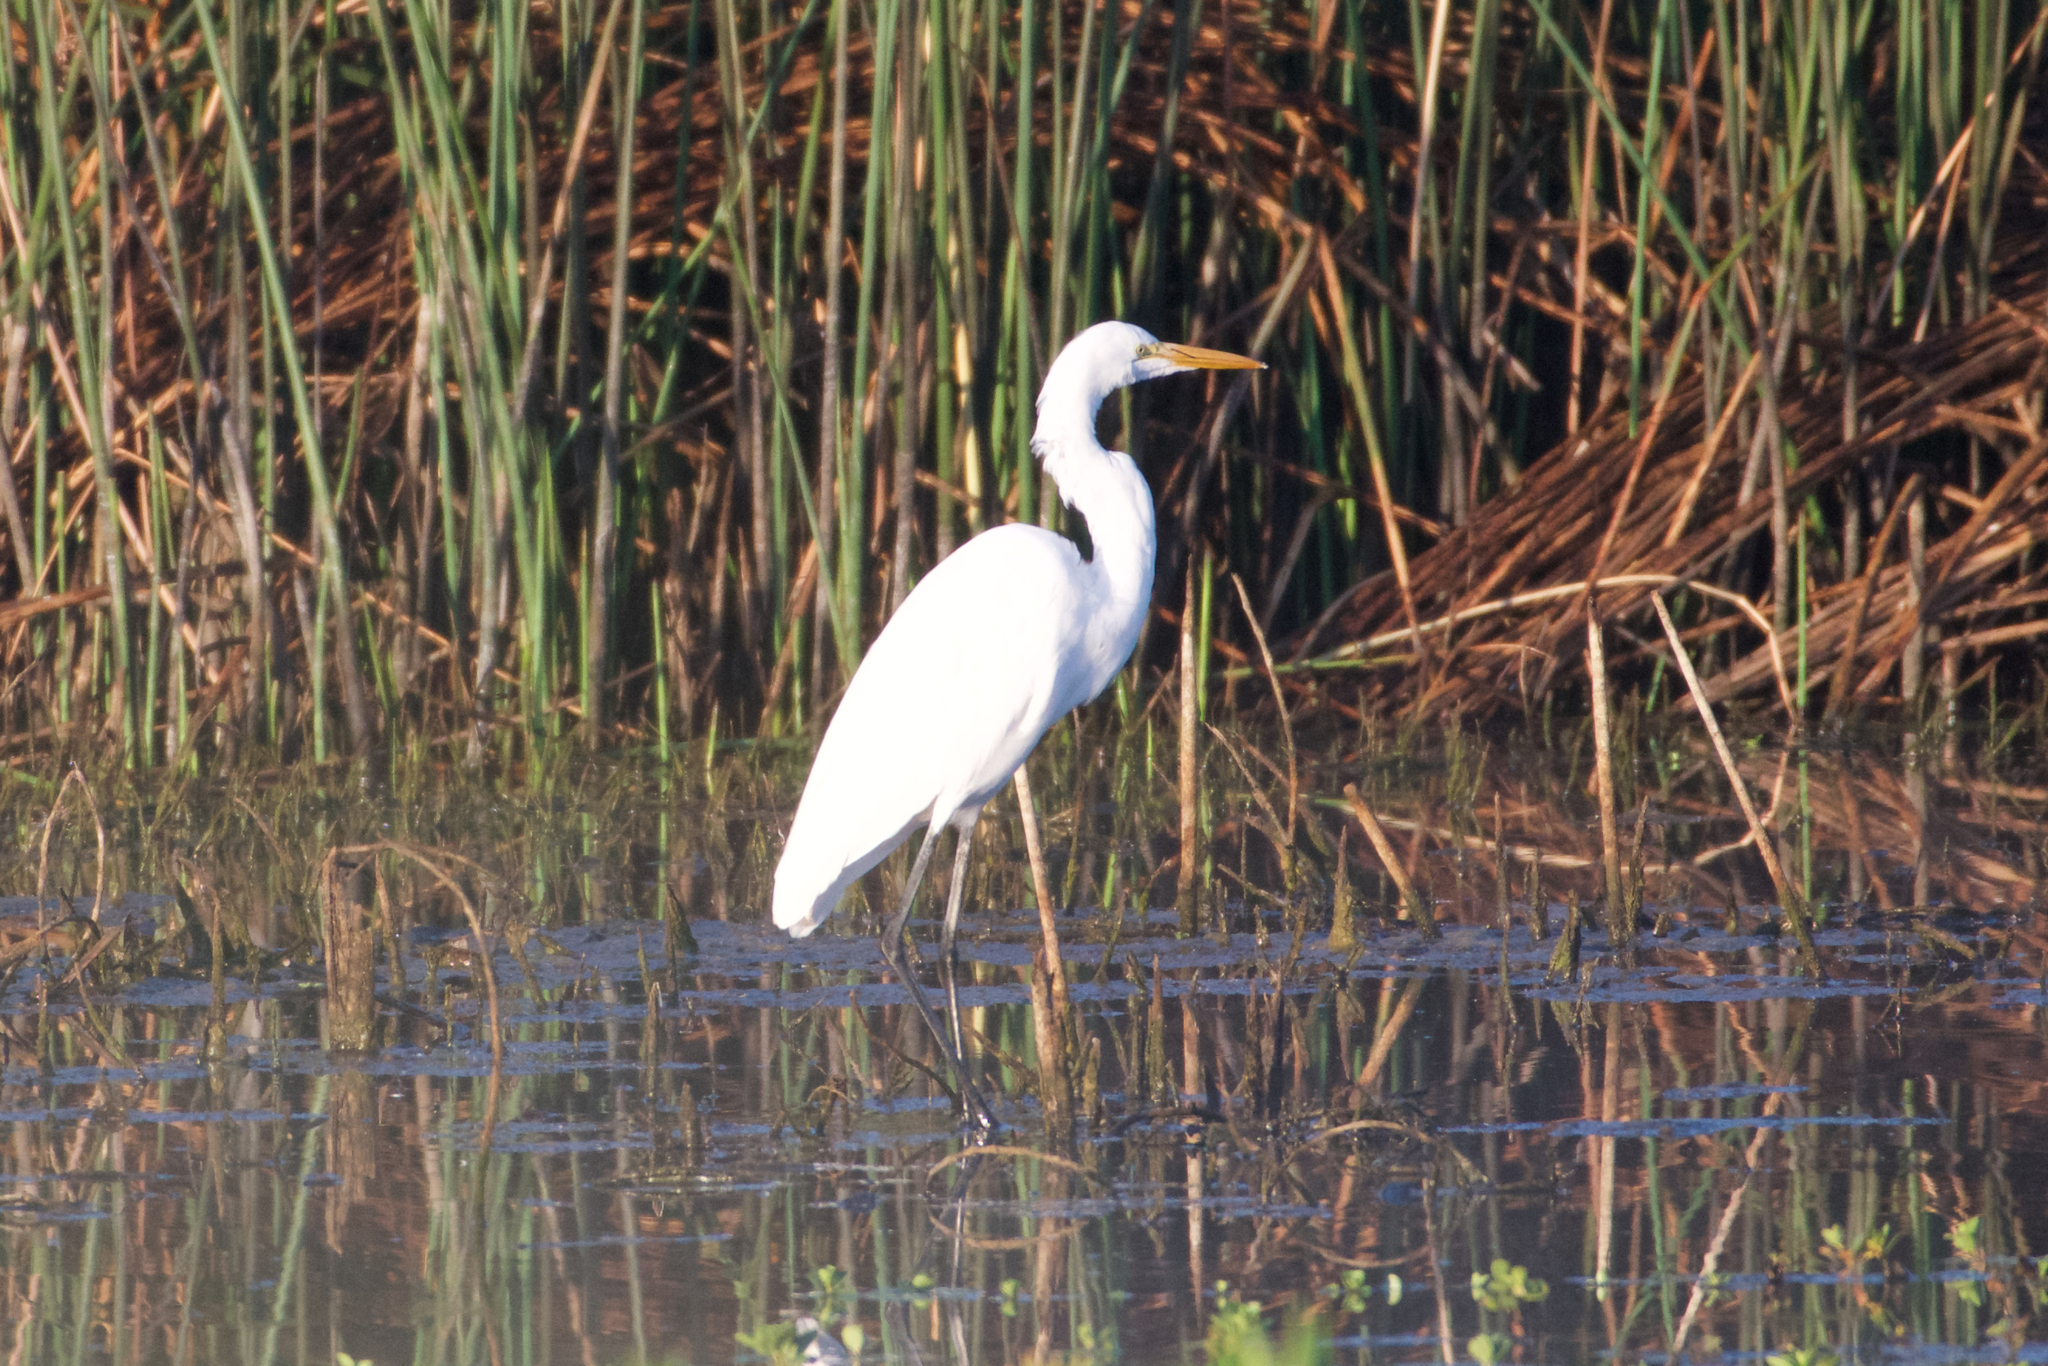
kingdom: Animalia
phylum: Chordata
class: Aves
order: Pelecaniformes
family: Ardeidae
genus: Ardea
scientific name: Ardea alba
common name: Great egret
